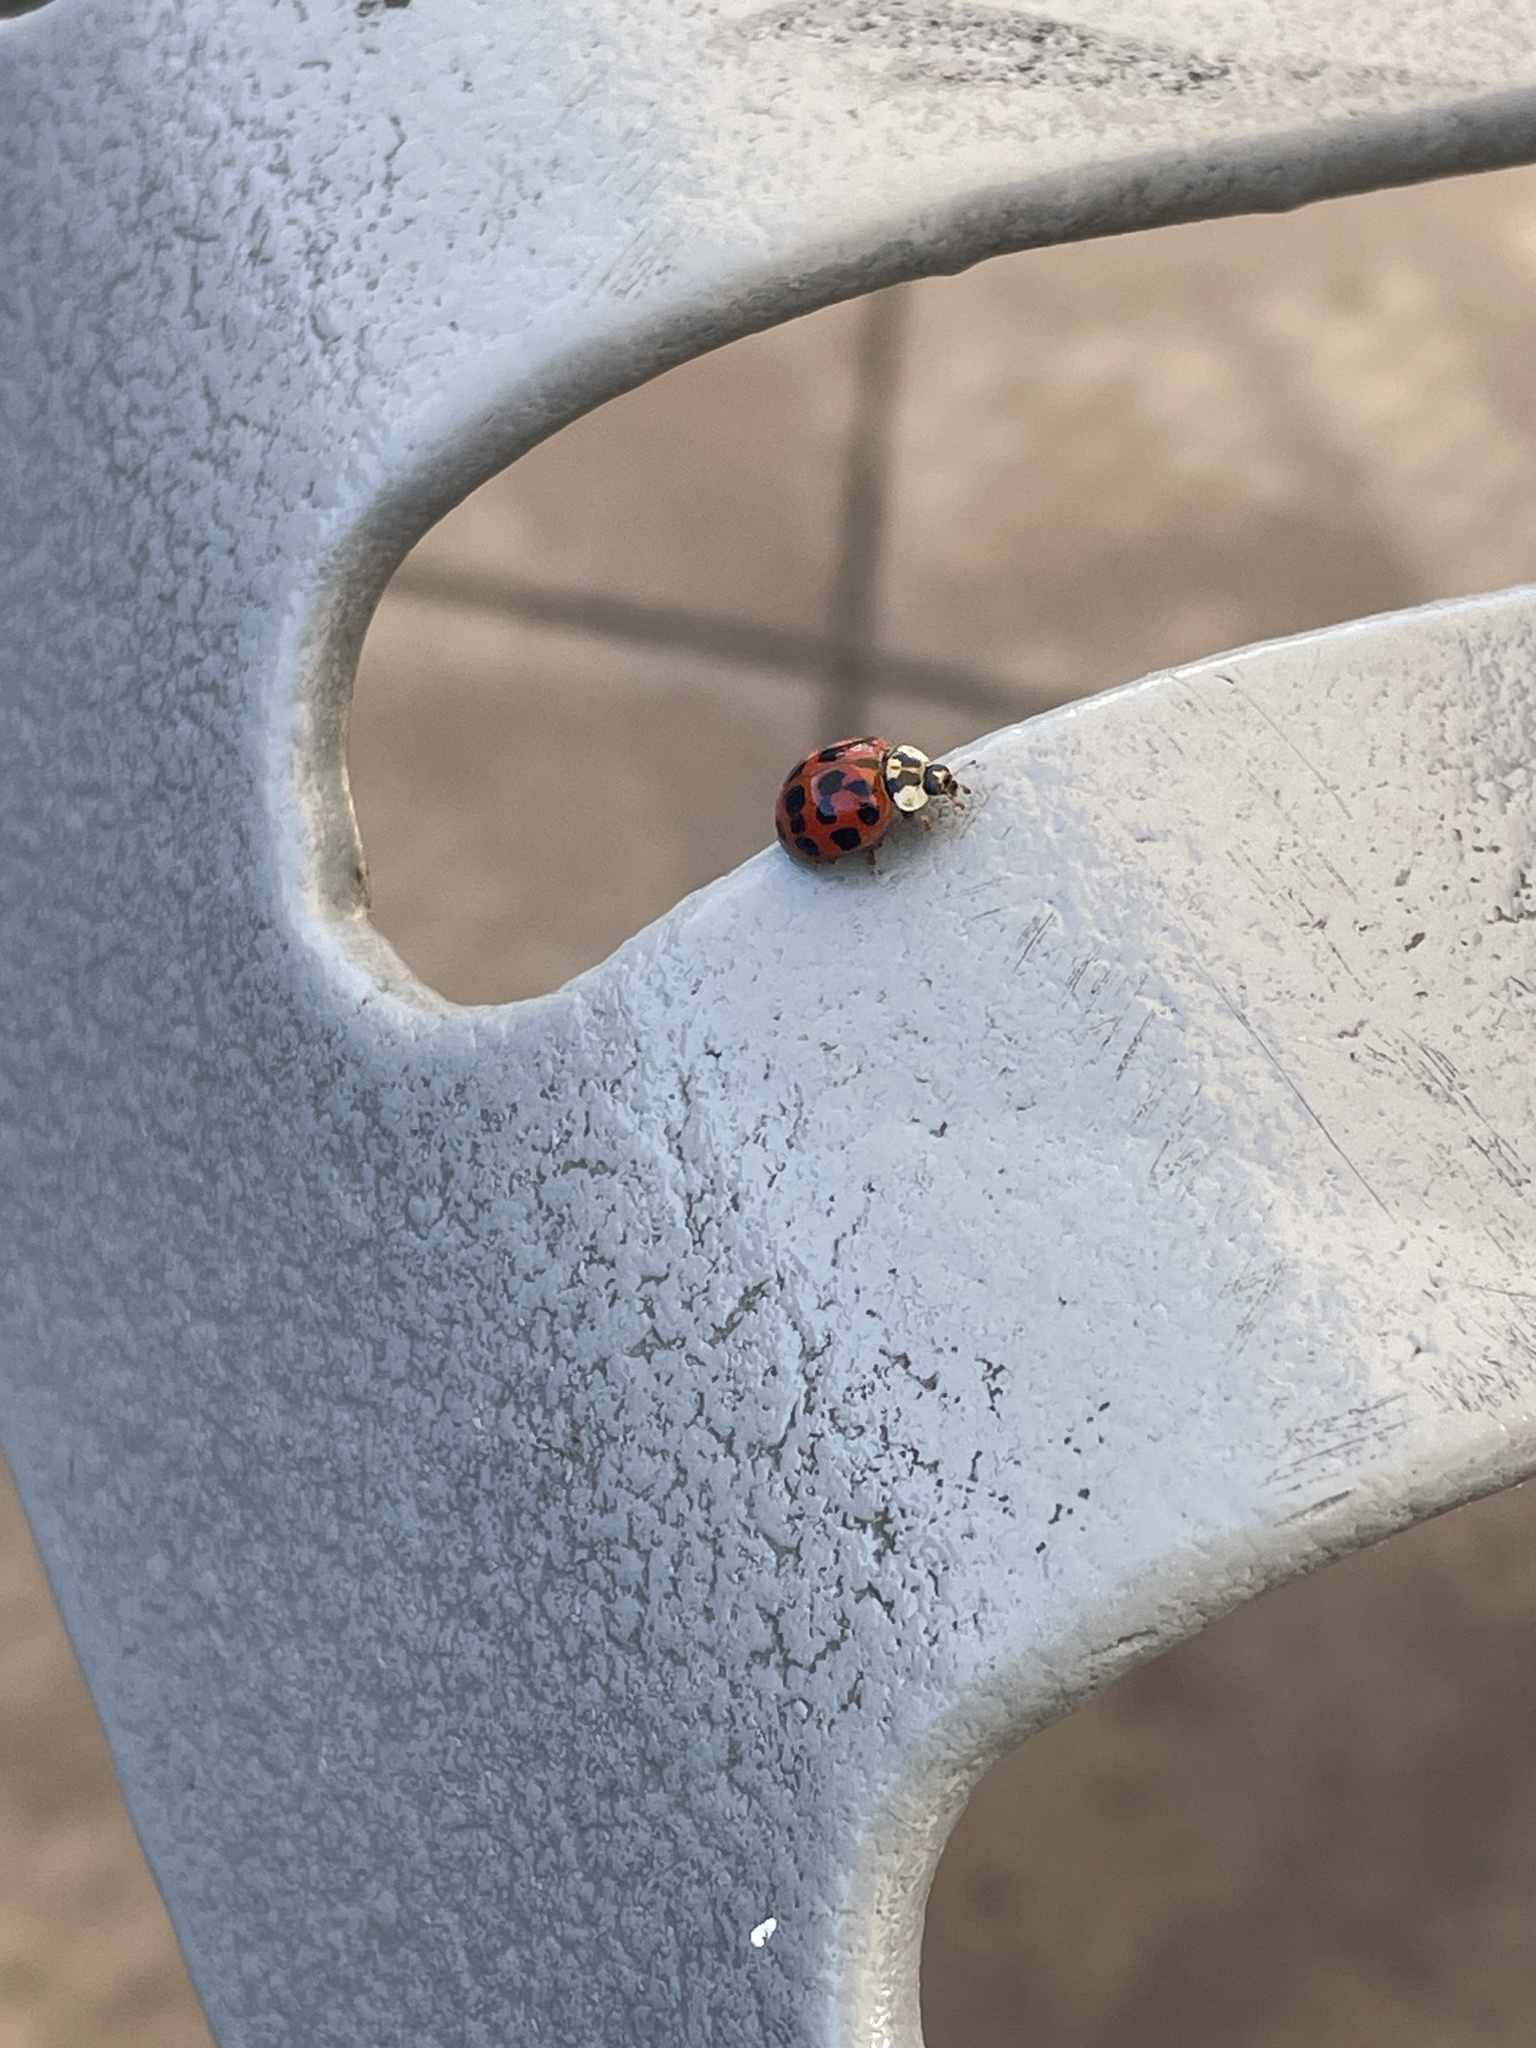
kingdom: Animalia
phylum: Arthropoda
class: Insecta
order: Coleoptera
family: Coccinellidae
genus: Harmonia
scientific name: Harmonia axyridis
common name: Harlequin ladybird
